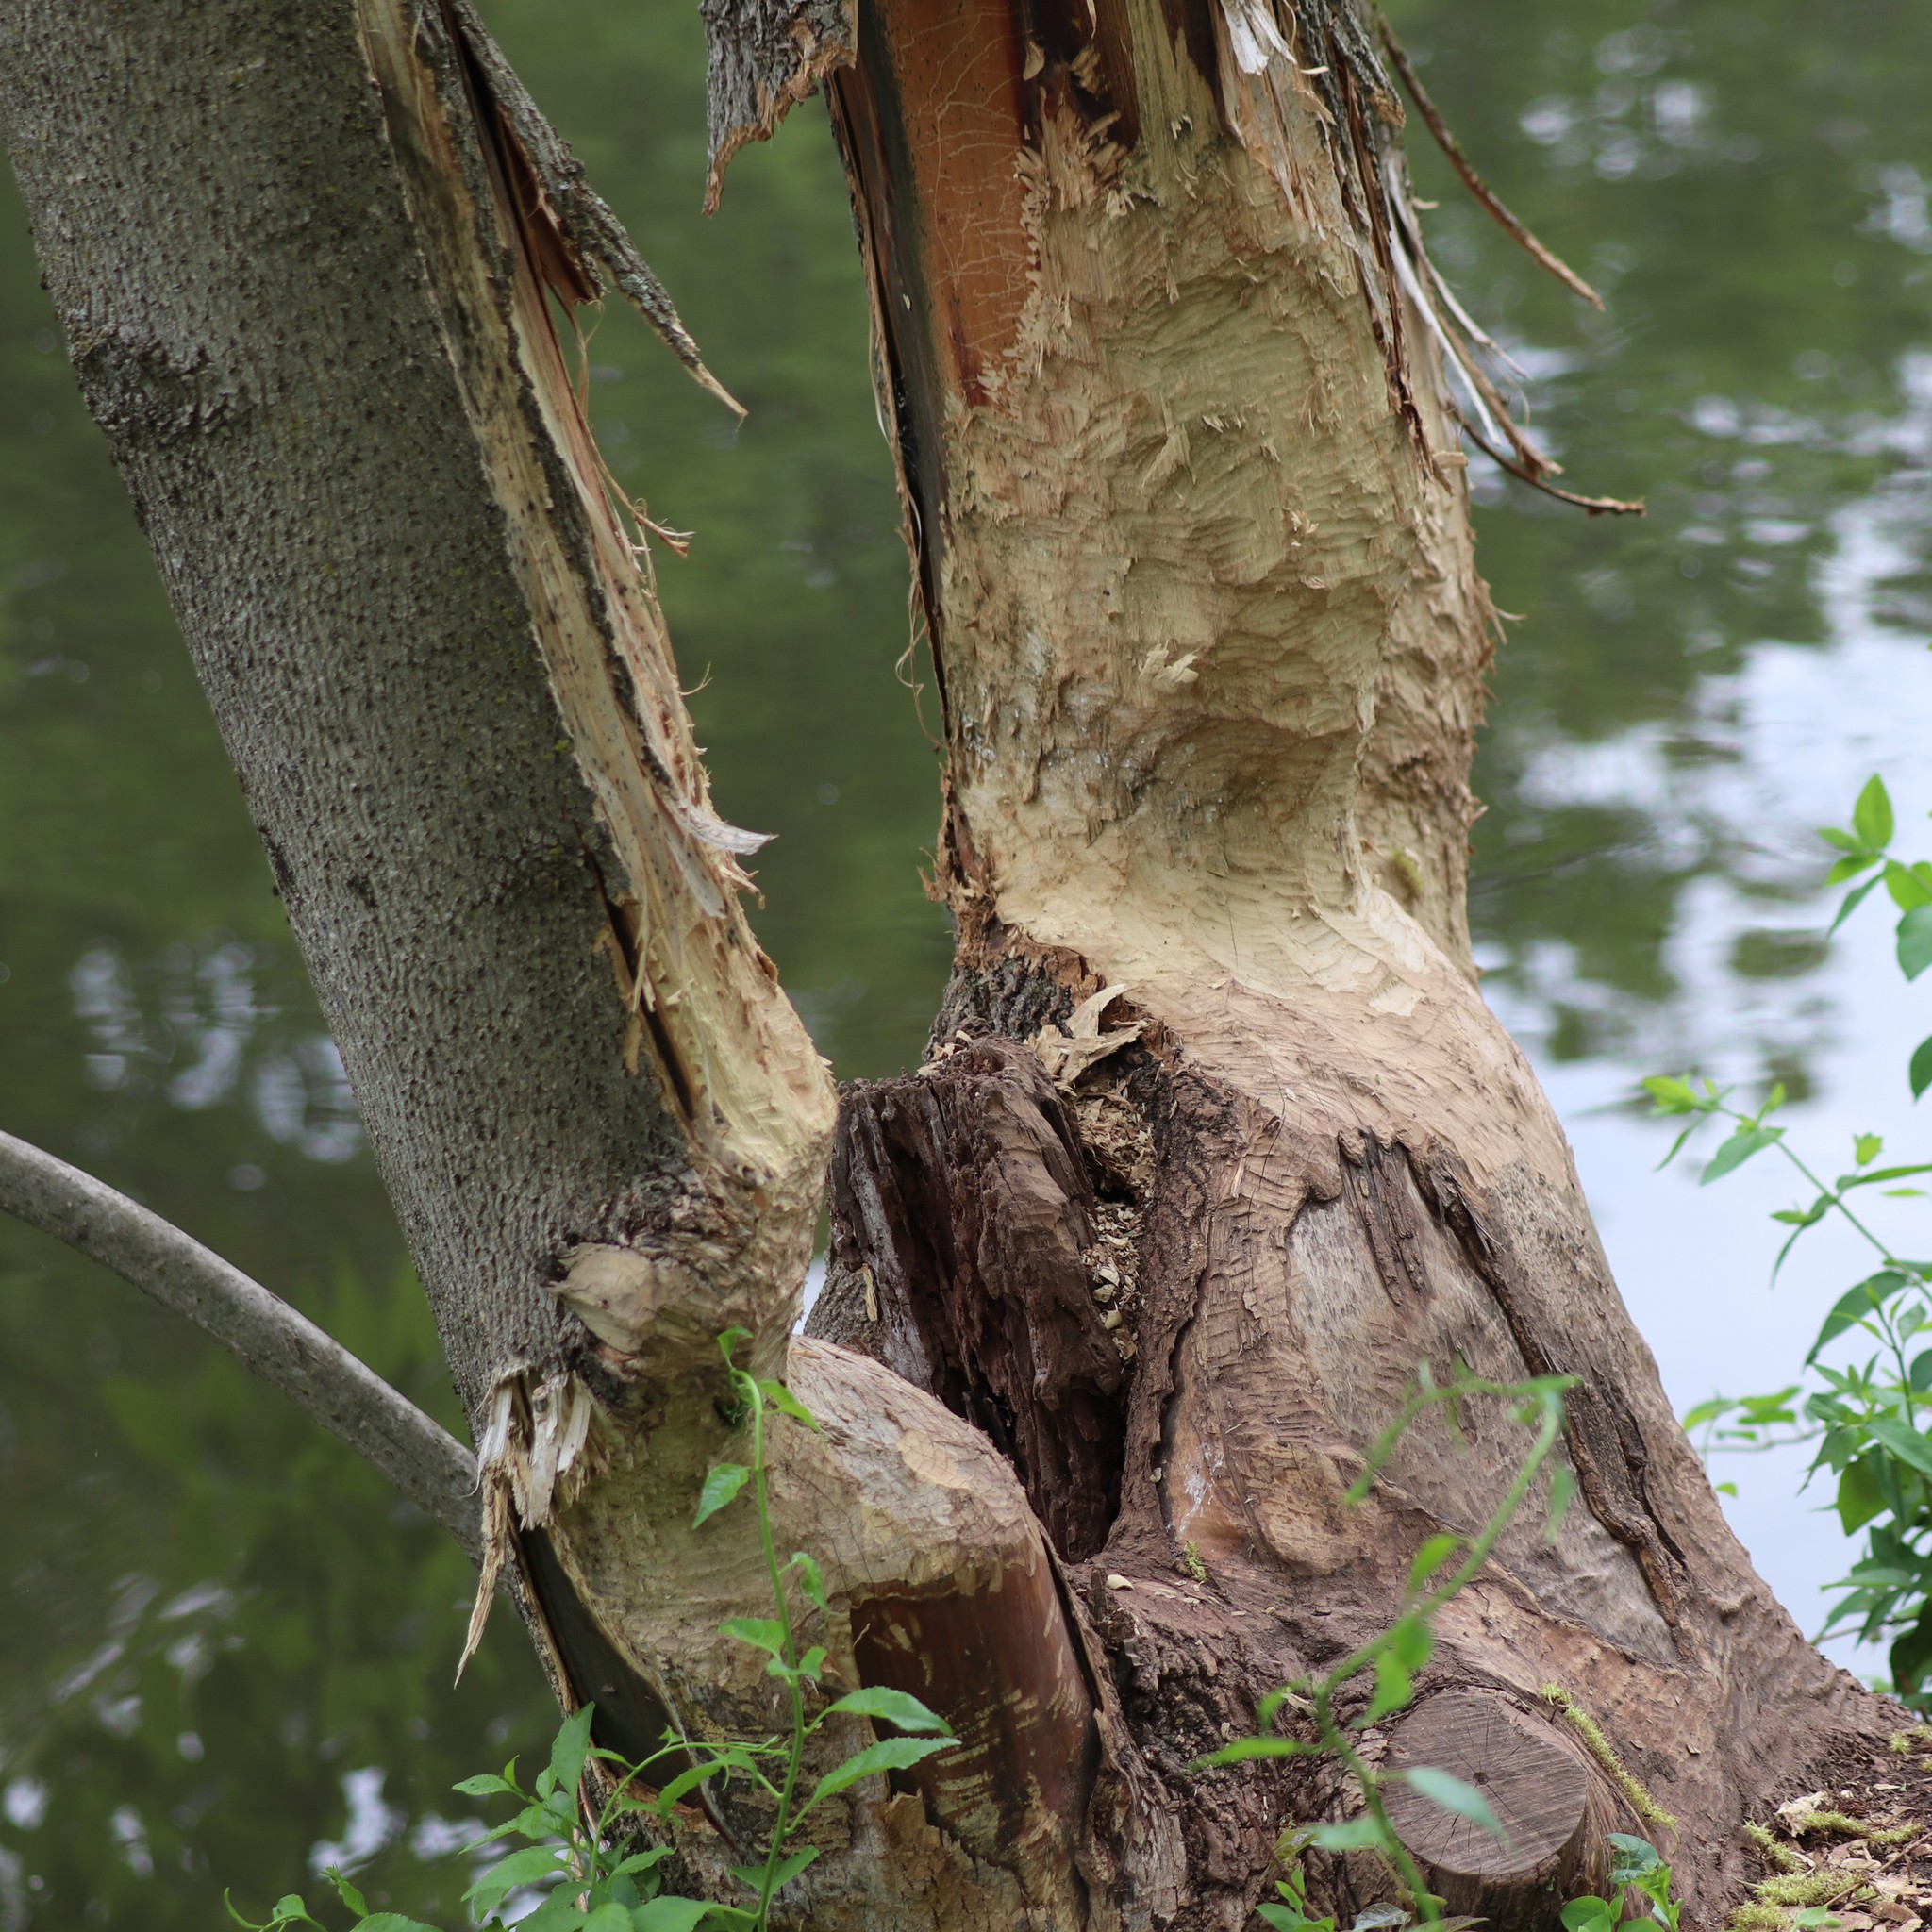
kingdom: Animalia
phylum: Chordata
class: Mammalia
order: Rodentia
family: Castoridae
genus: Castor
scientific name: Castor canadensis
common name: American beaver
